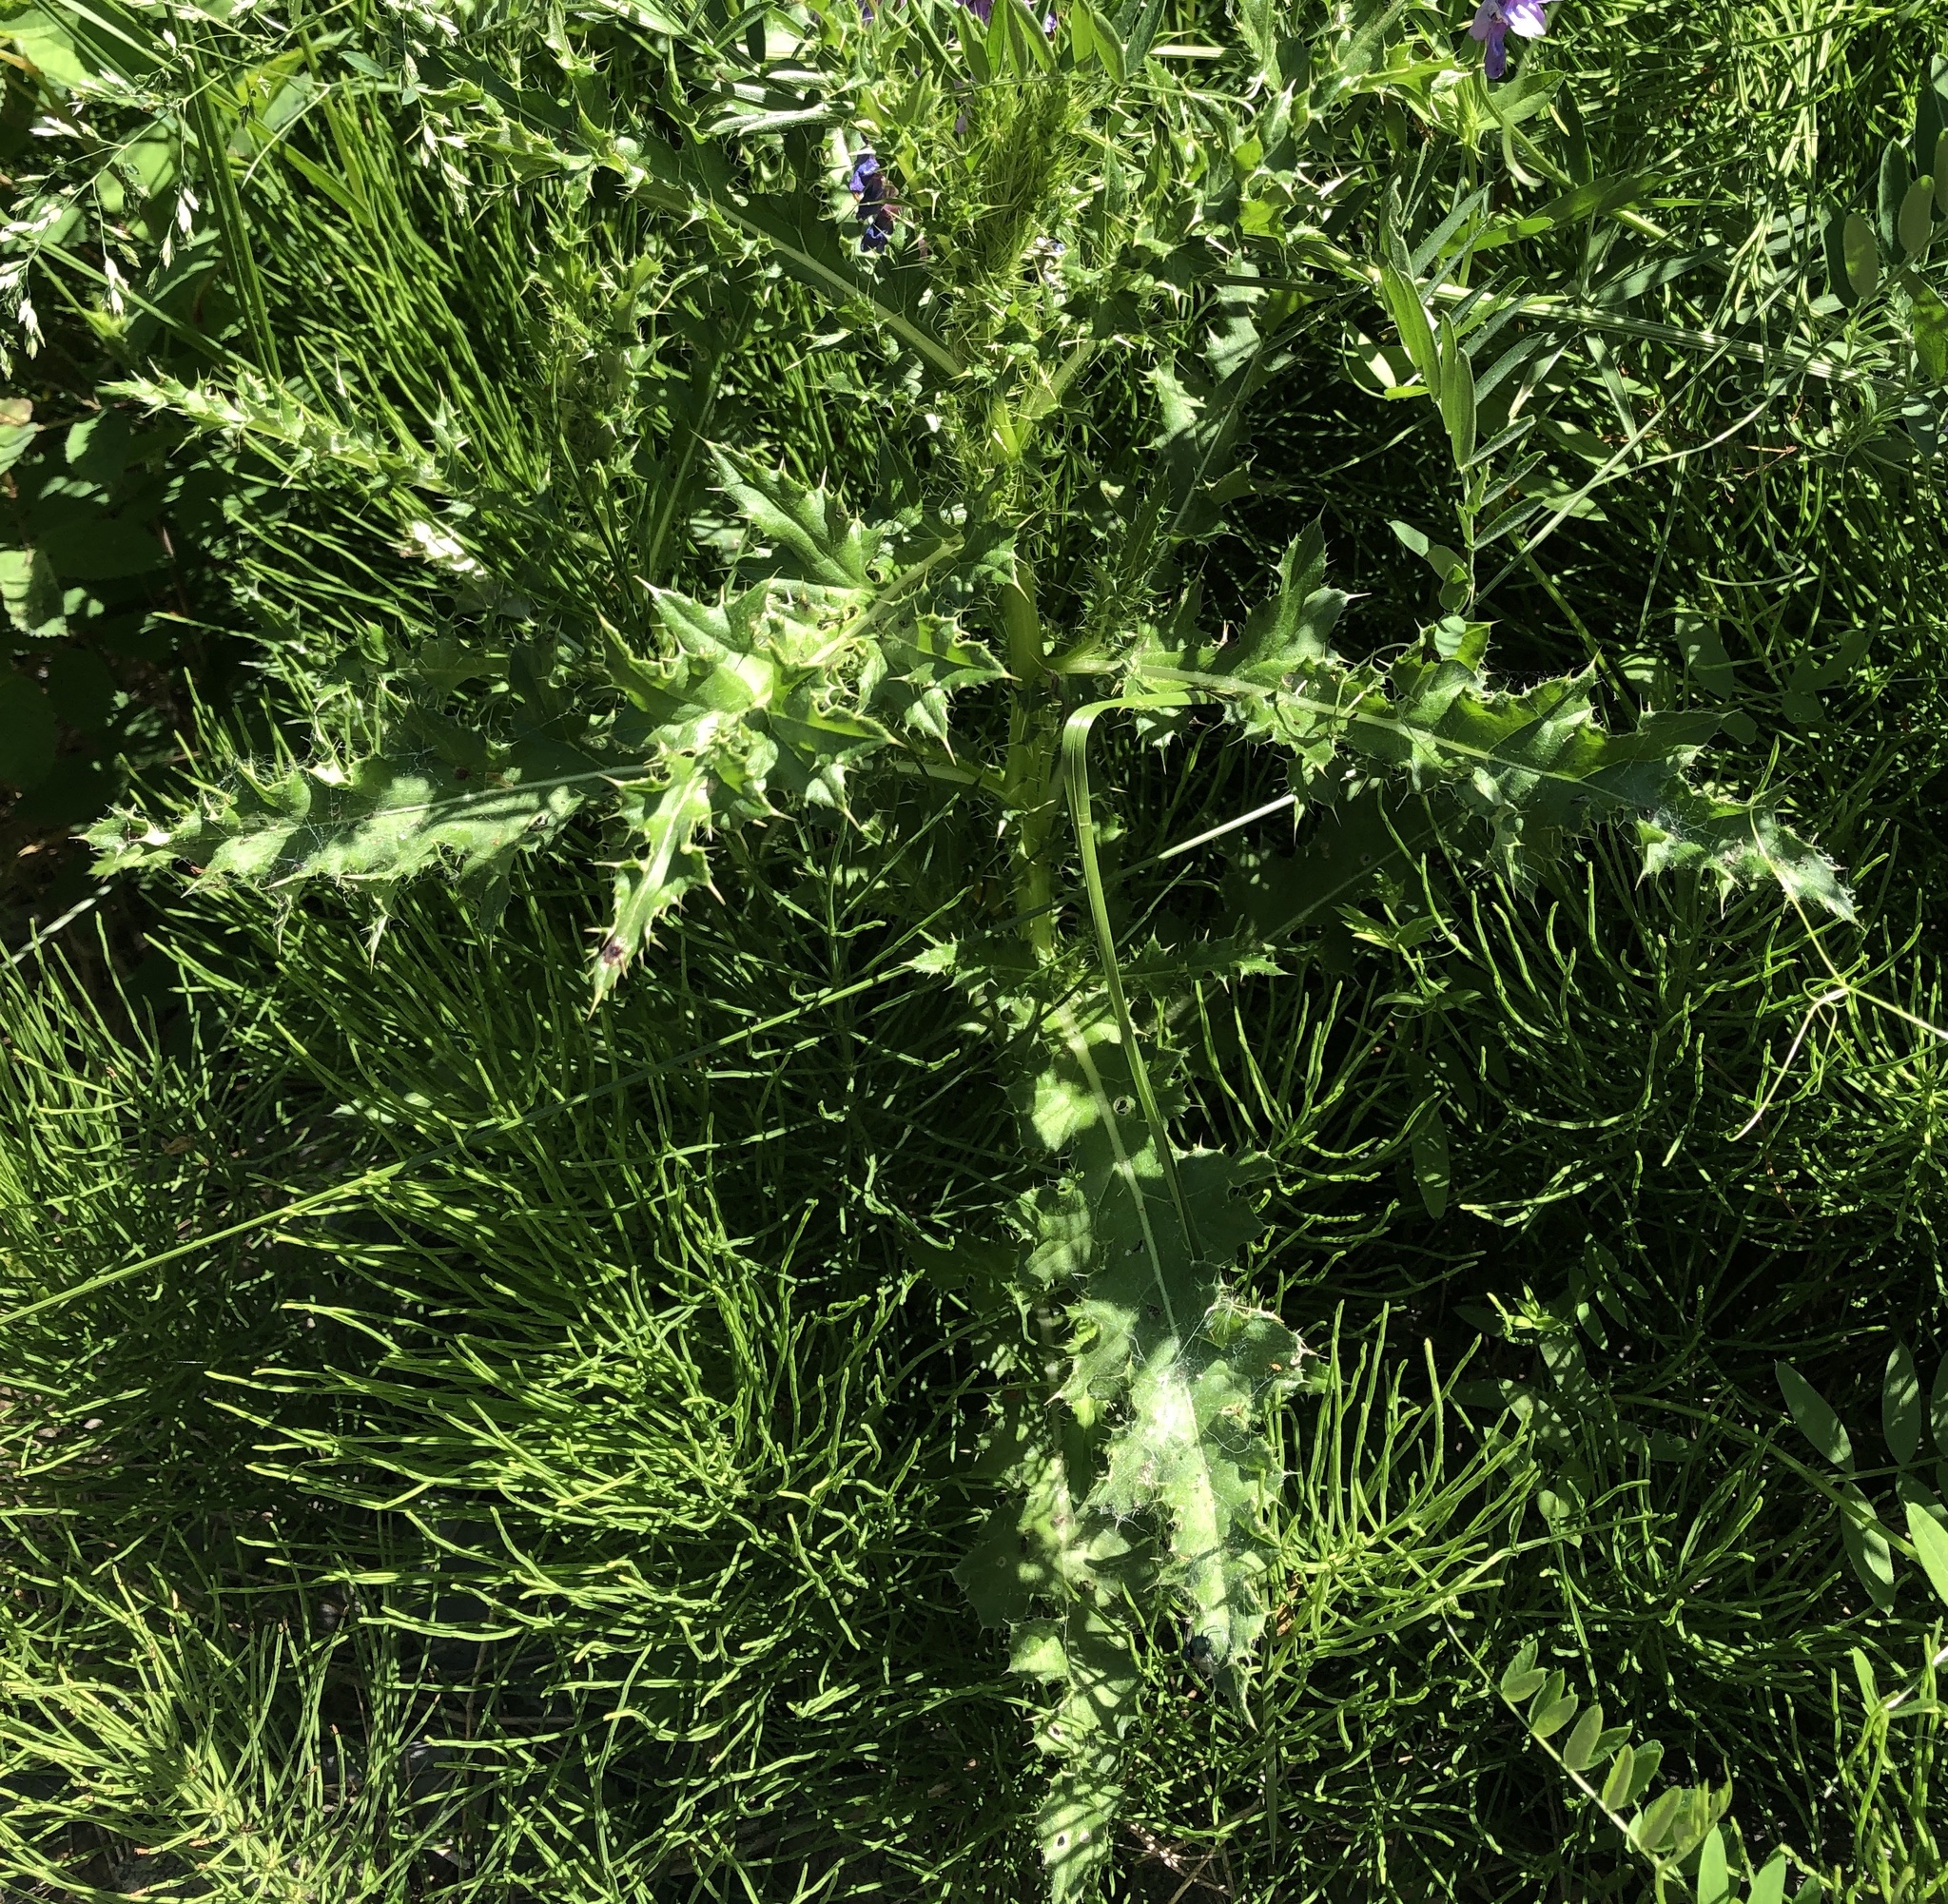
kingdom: Plantae
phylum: Tracheophyta
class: Magnoliopsida
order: Asterales
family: Asteraceae
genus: Cirsium
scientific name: Cirsium arvense
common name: Creeping thistle
